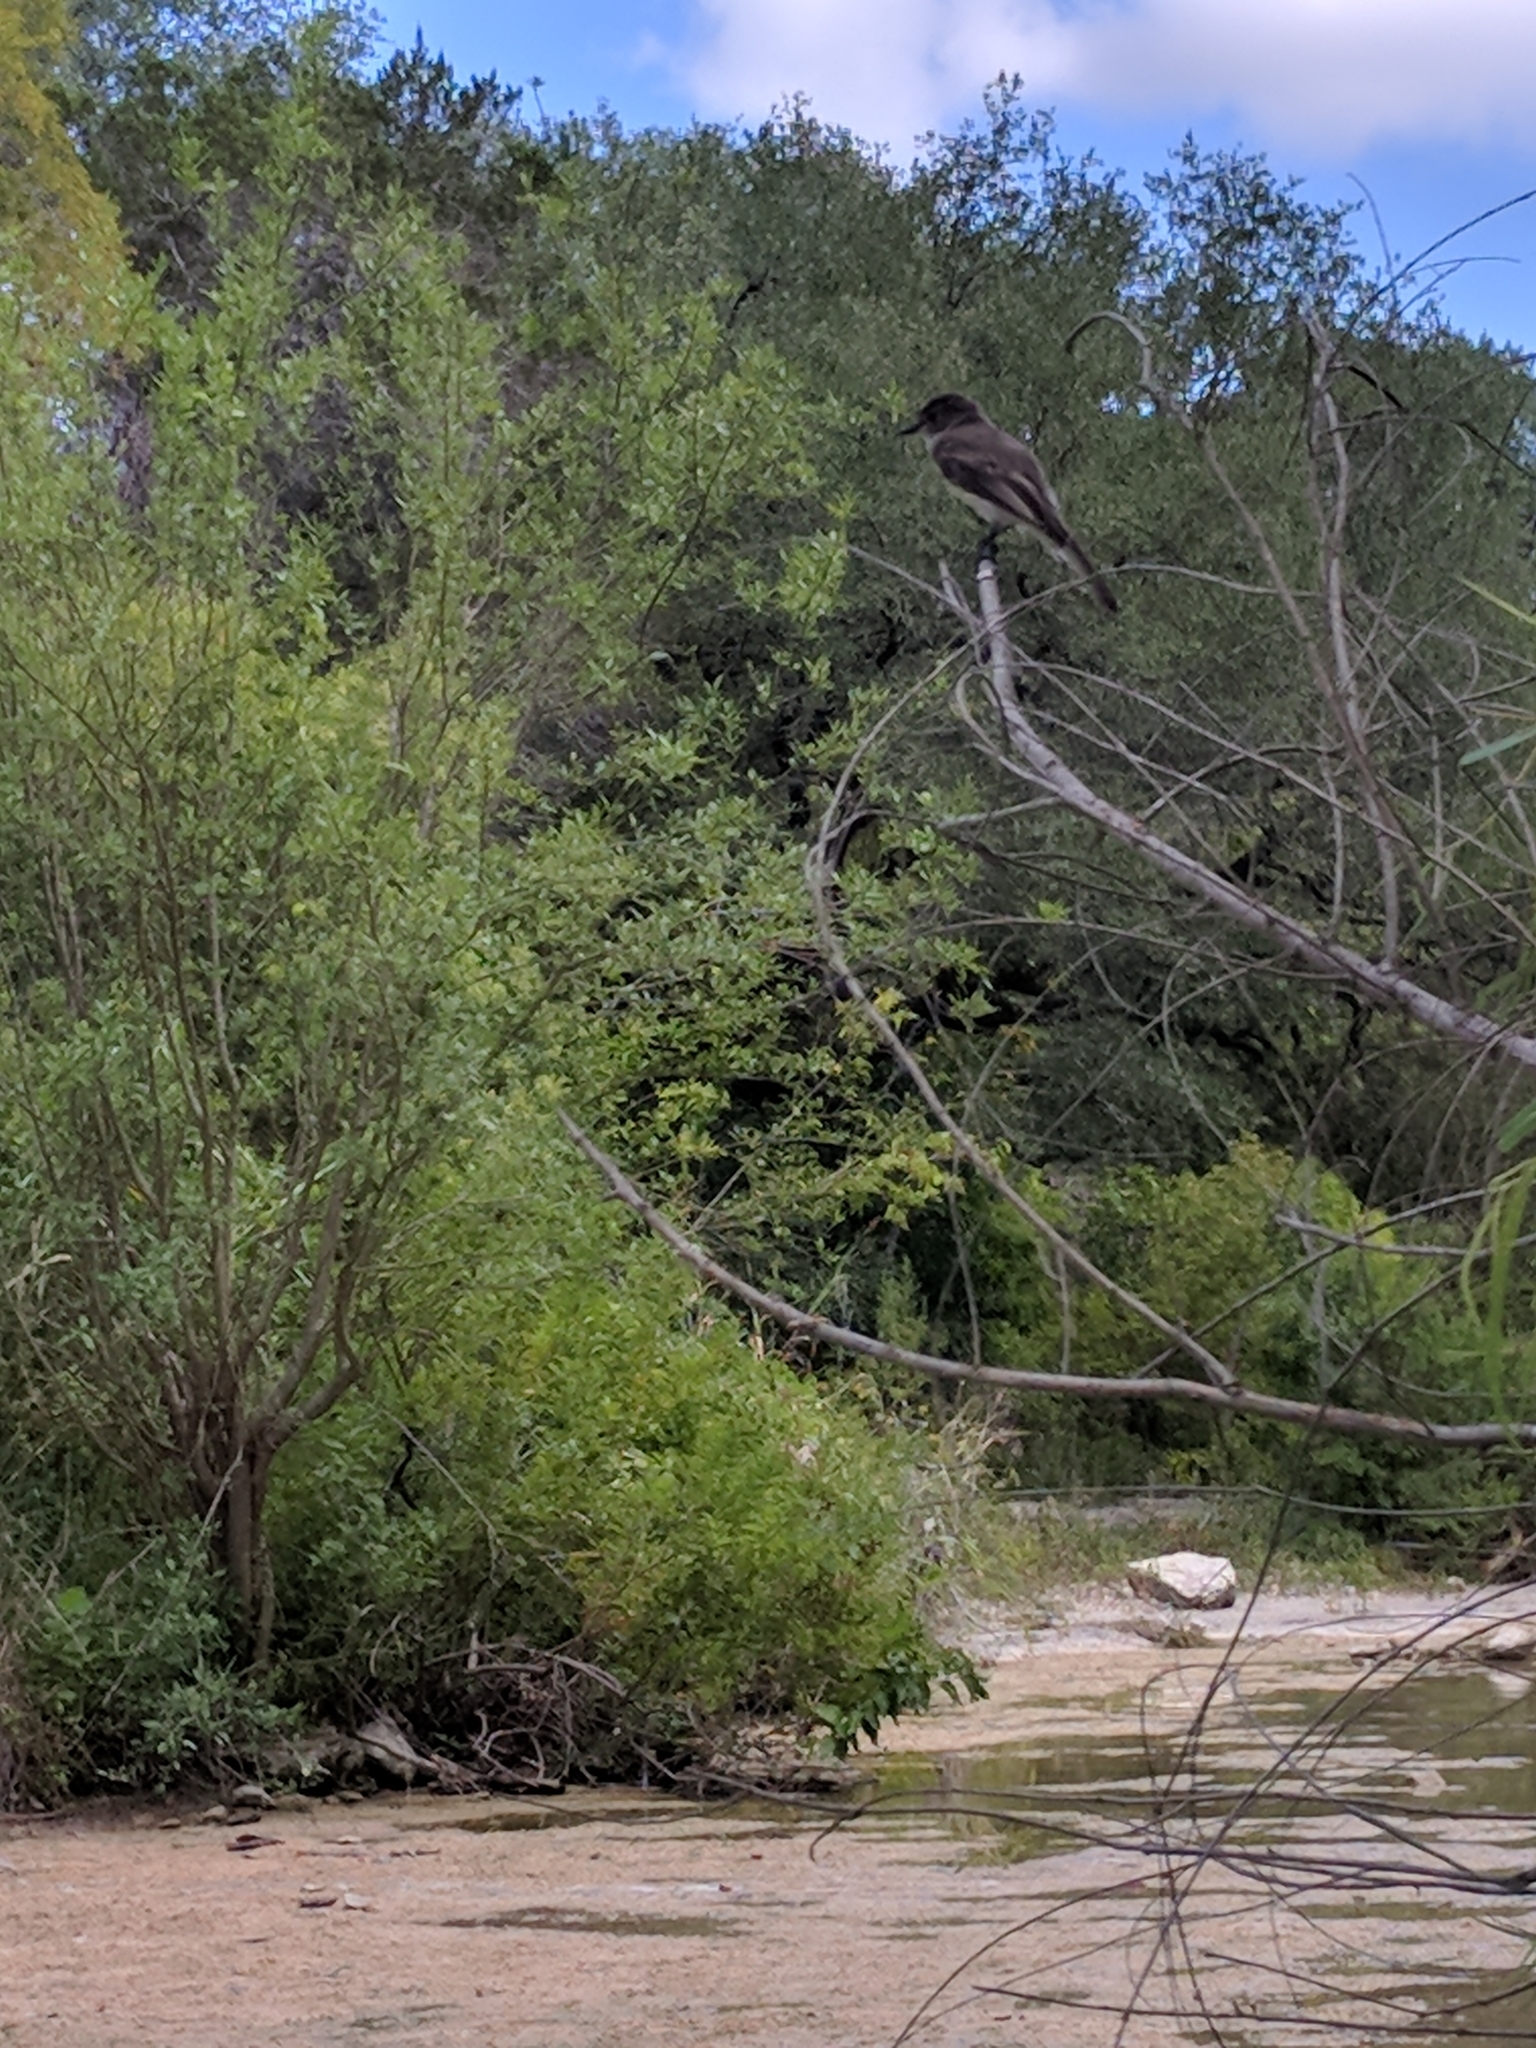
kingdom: Animalia
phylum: Chordata
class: Aves
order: Passeriformes
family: Tyrannidae
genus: Sayornis
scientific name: Sayornis phoebe
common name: Eastern phoebe
